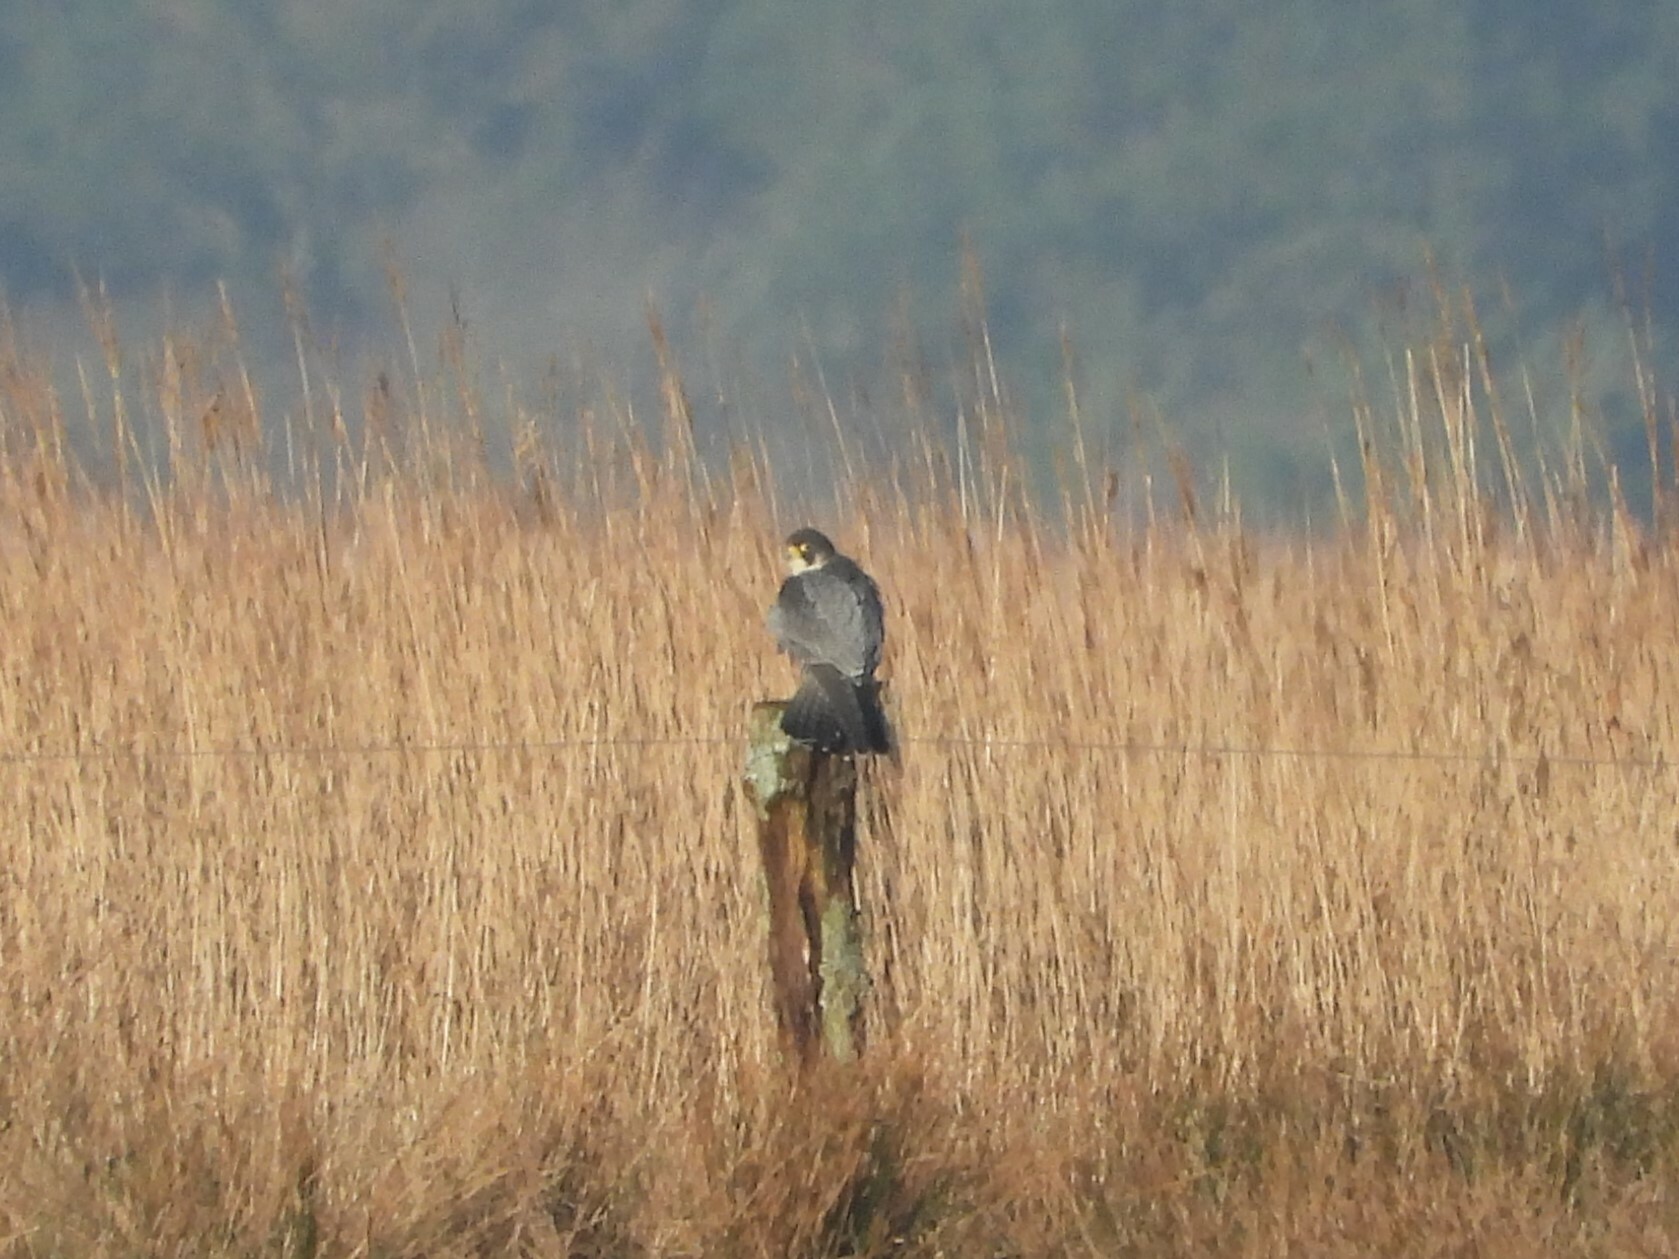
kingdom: Animalia
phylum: Chordata
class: Aves
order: Falconiformes
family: Falconidae
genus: Falco
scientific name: Falco peregrinus
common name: Peregrine falcon
